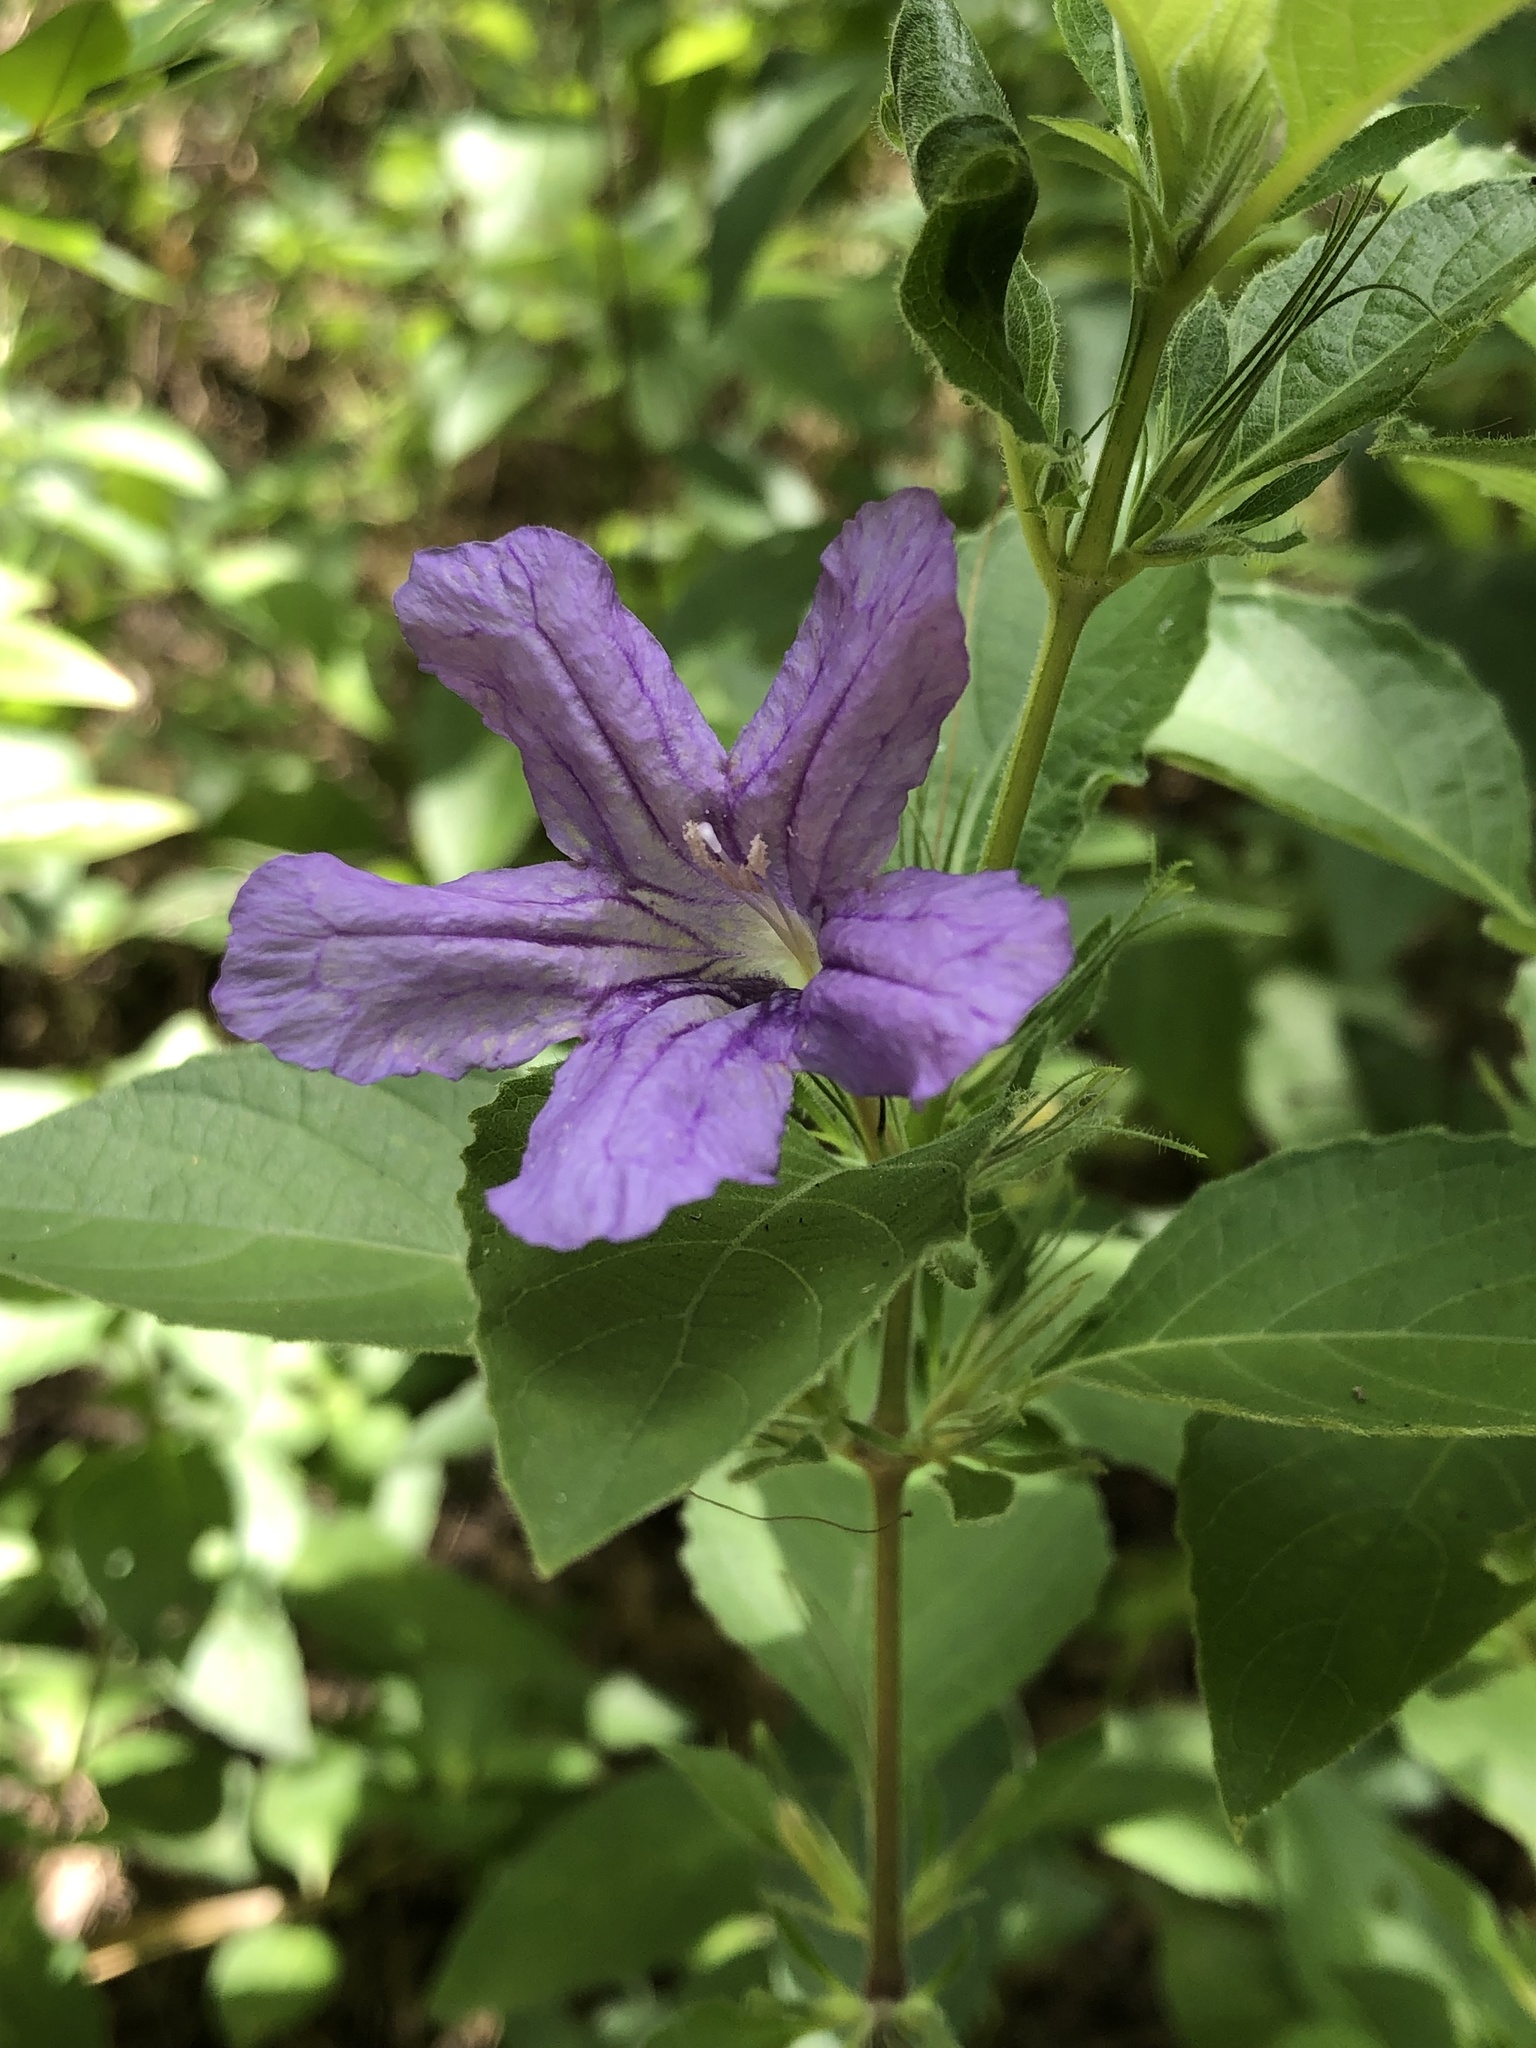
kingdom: Plantae
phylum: Tracheophyta
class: Magnoliopsida
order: Lamiales
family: Acanthaceae
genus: Ruellia
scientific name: Ruellia drummondiana
